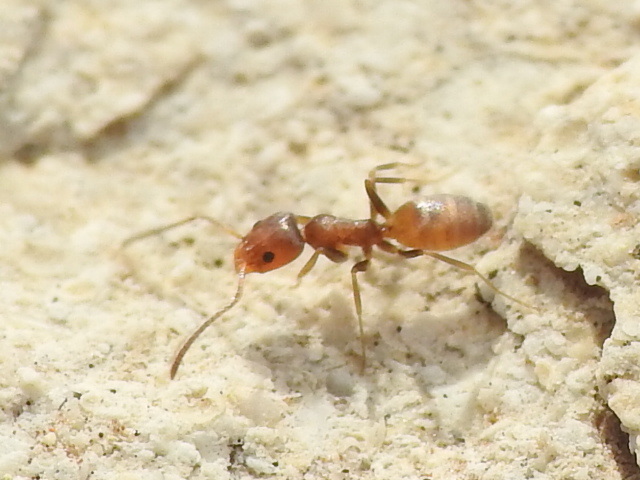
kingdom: Animalia
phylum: Arthropoda
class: Insecta
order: Hymenoptera
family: Formicidae
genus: Forelius
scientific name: Forelius pruinosus
